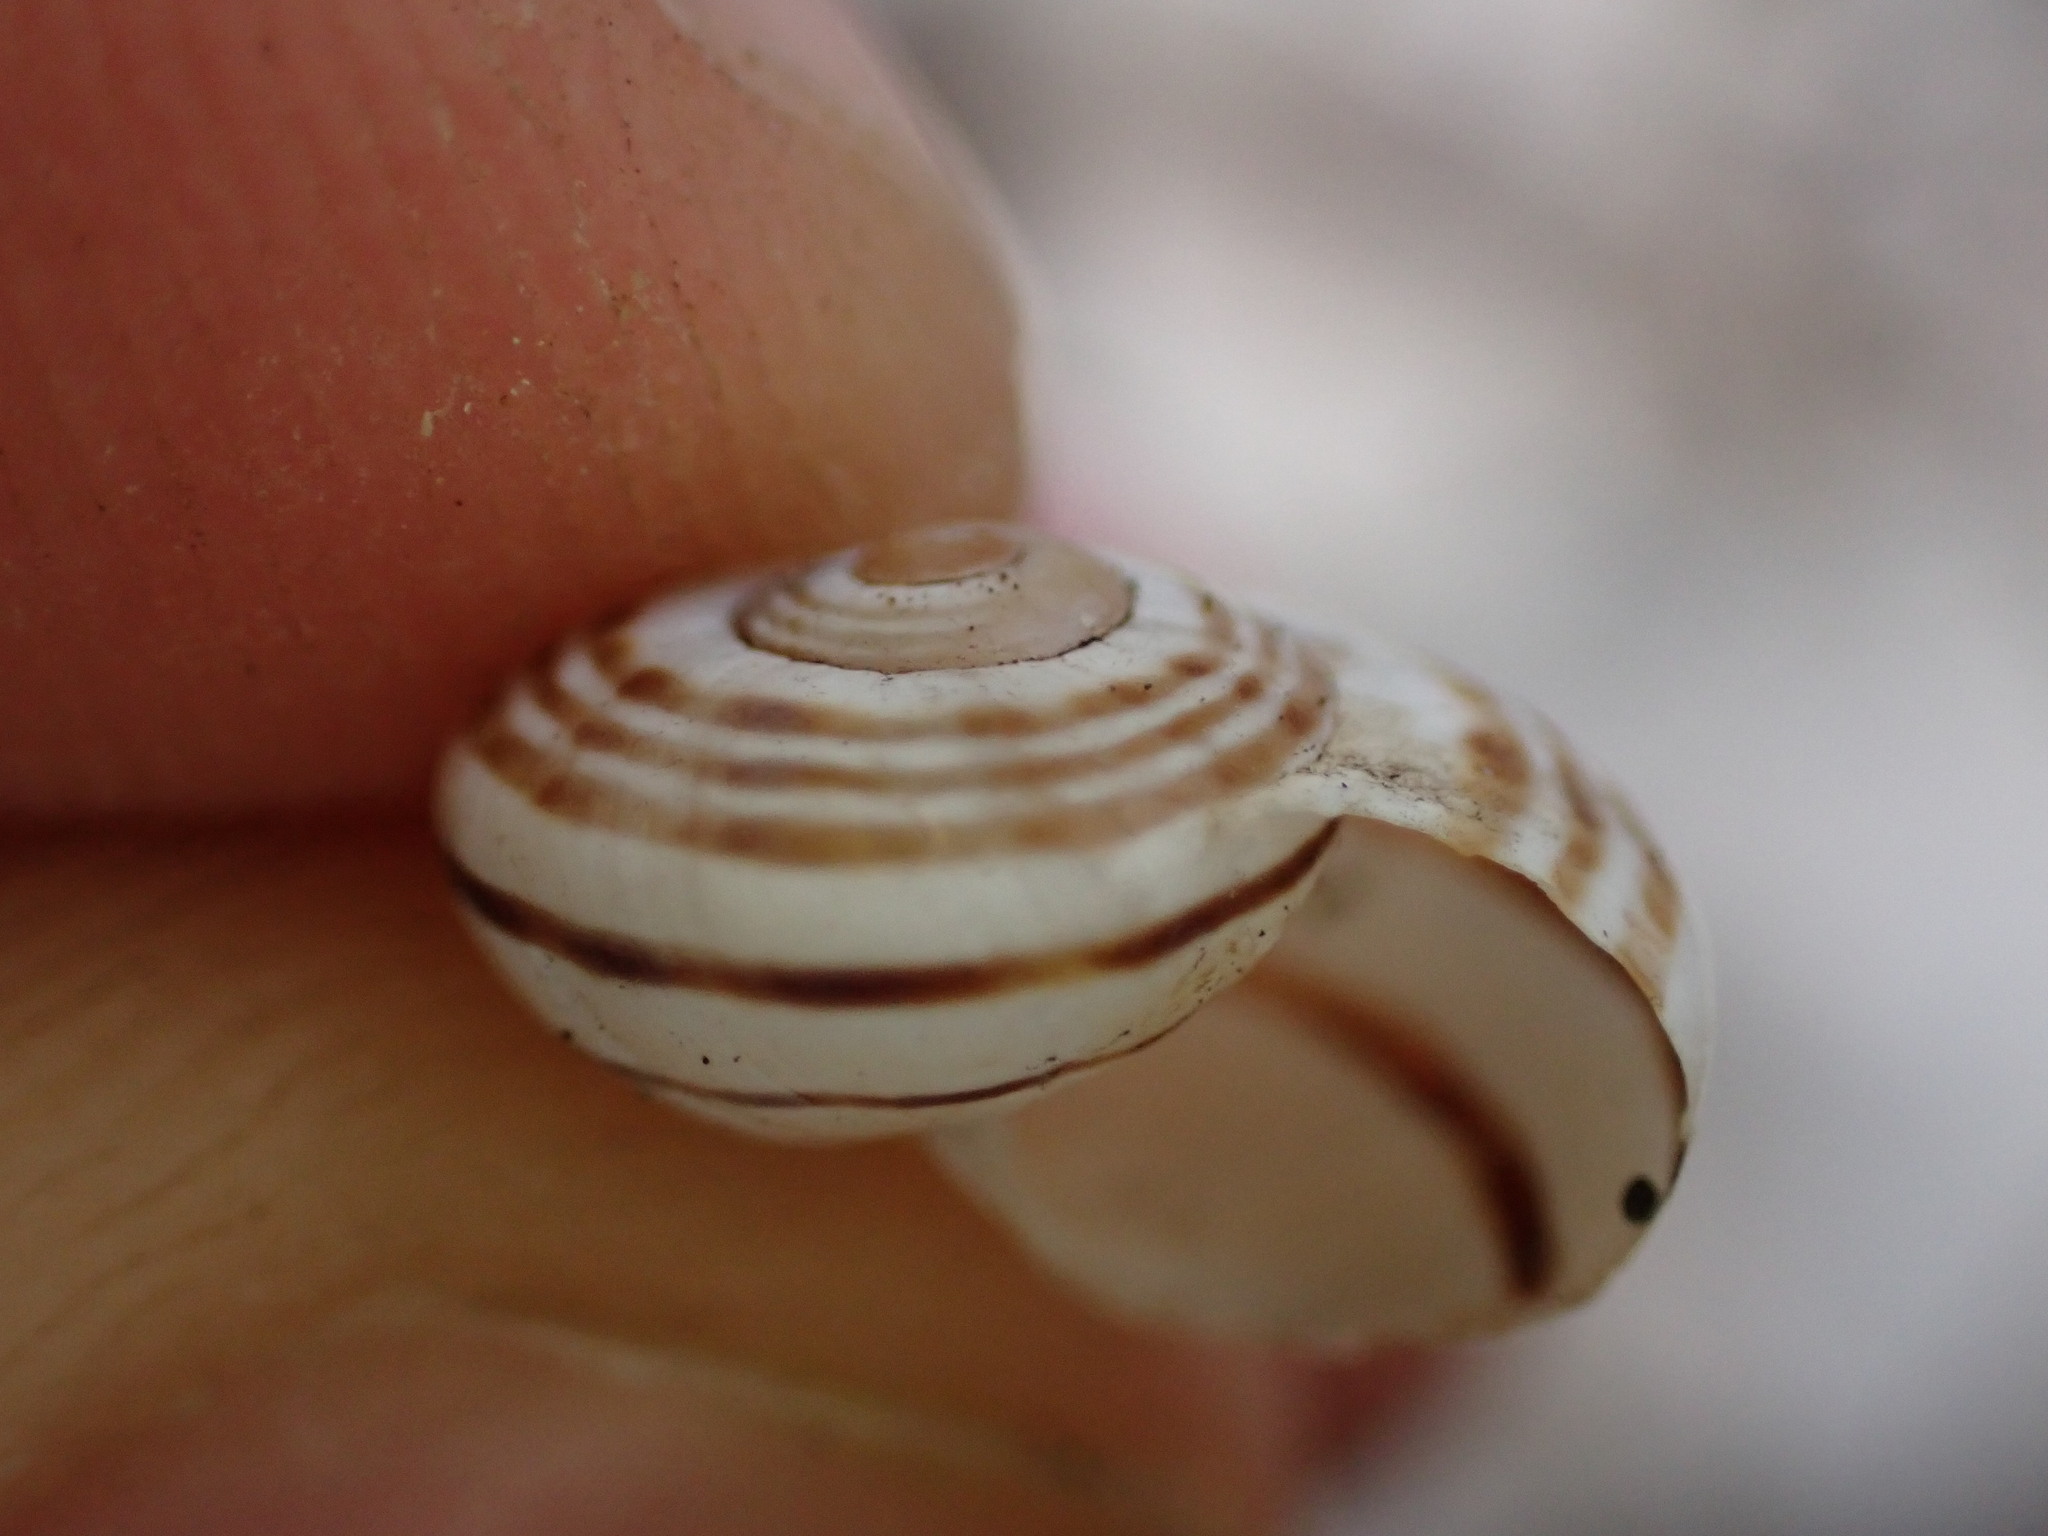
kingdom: Animalia
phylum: Mollusca
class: Gastropoda
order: Stylommatophora
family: Helicidae
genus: Pseudotachea
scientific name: Pseudotachea splendida
